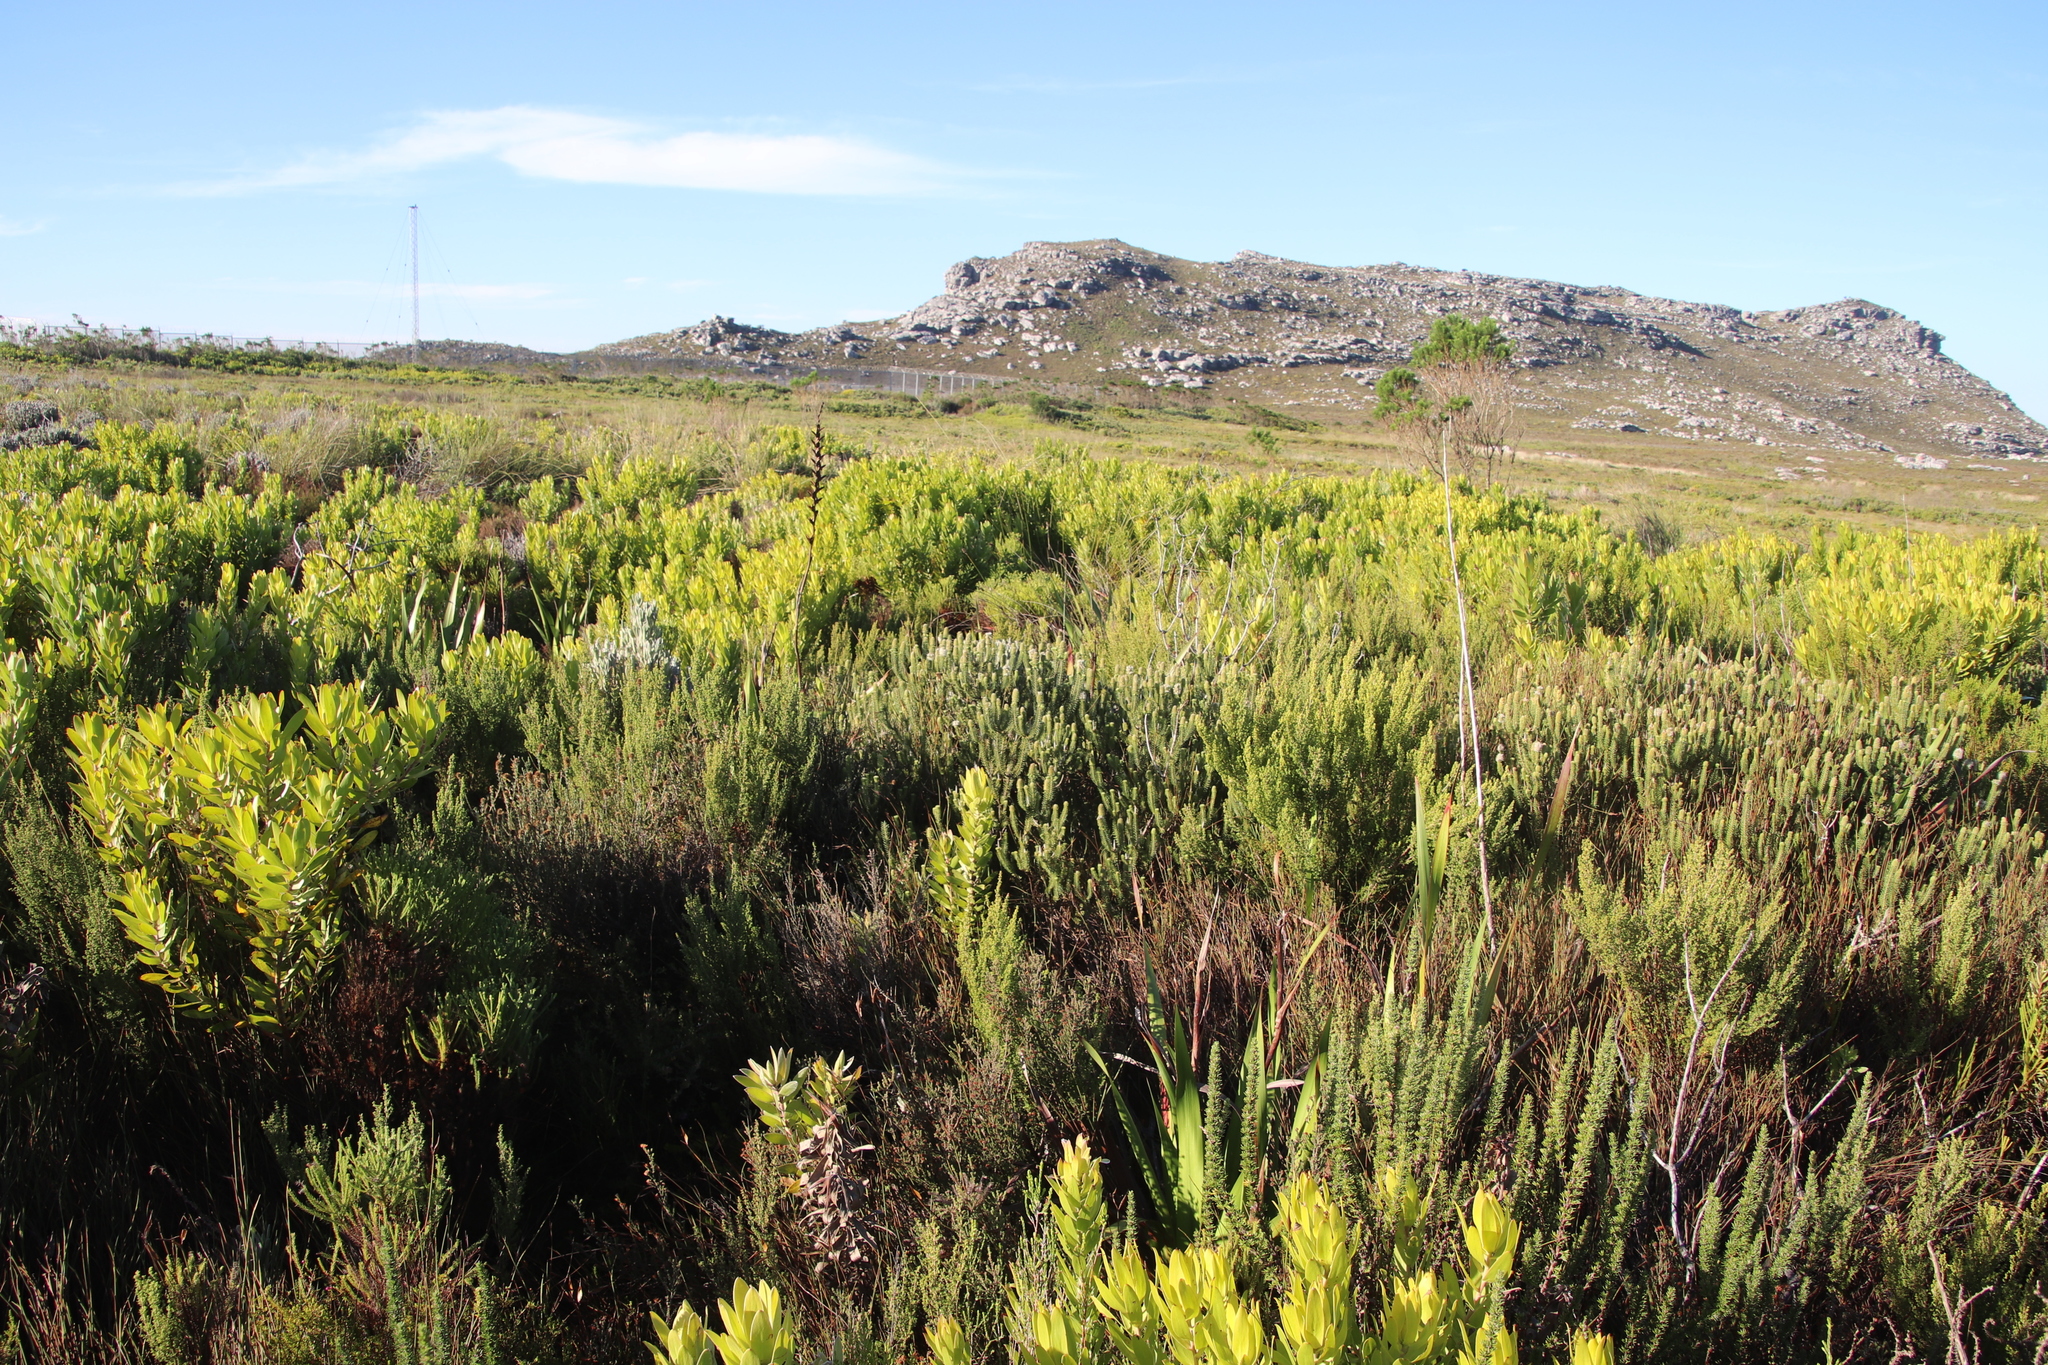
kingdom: Plantae
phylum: Tracheophyta
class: Magnoliopsida
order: Lamiales
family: Stilbaceae
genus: Stilbe
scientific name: Stilbe vestita
